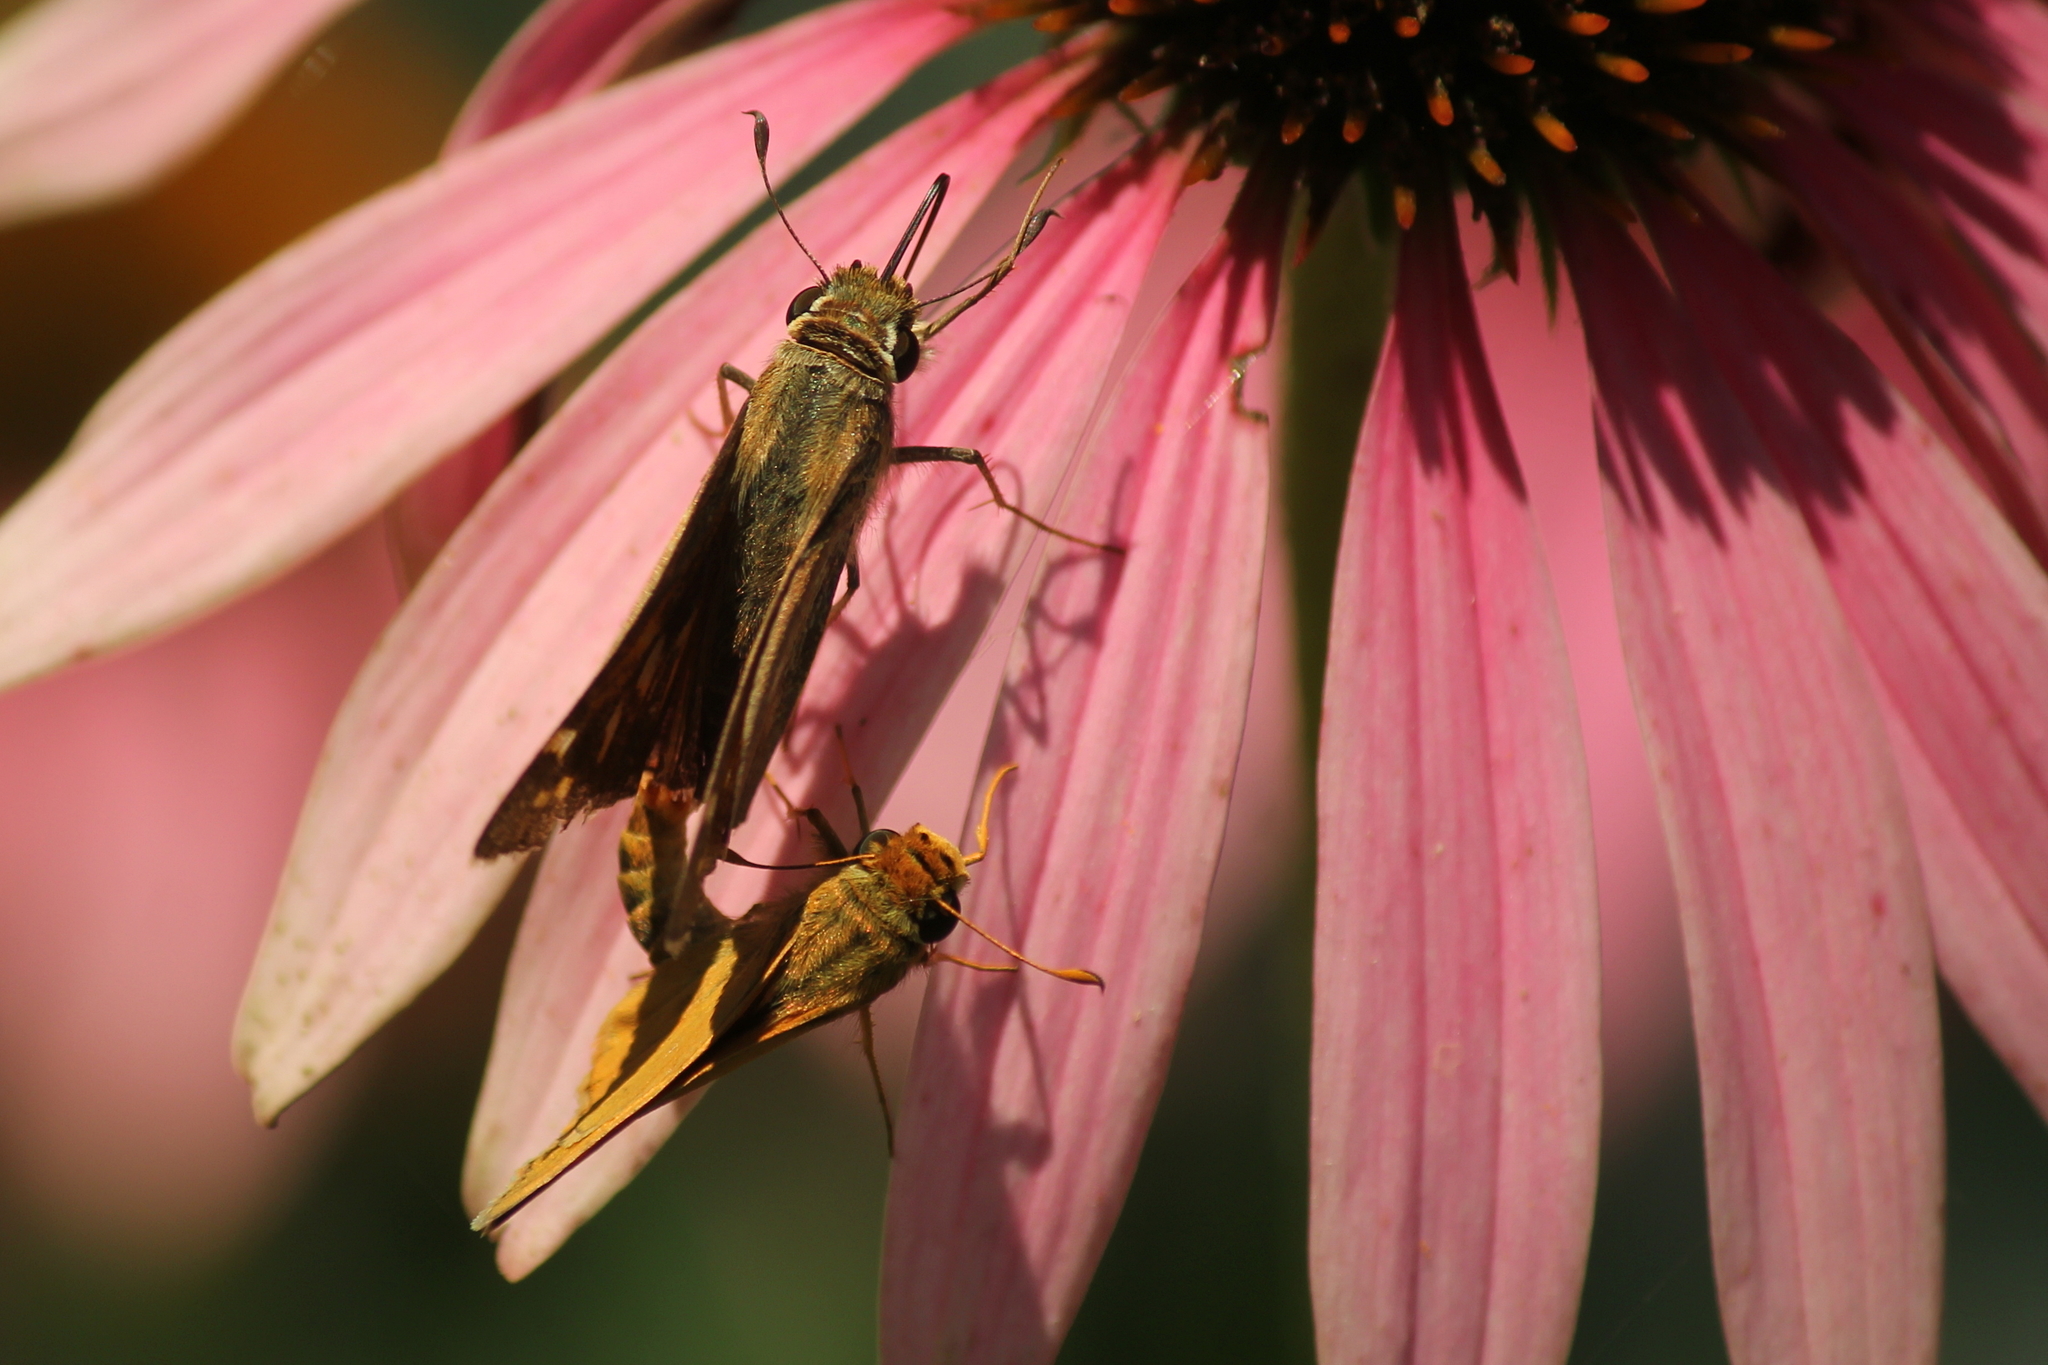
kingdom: Animalia
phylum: Arthropoda
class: Insecta
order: Lepidoptera
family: Hesperiidae
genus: Atalopedes
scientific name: Atalopedes
